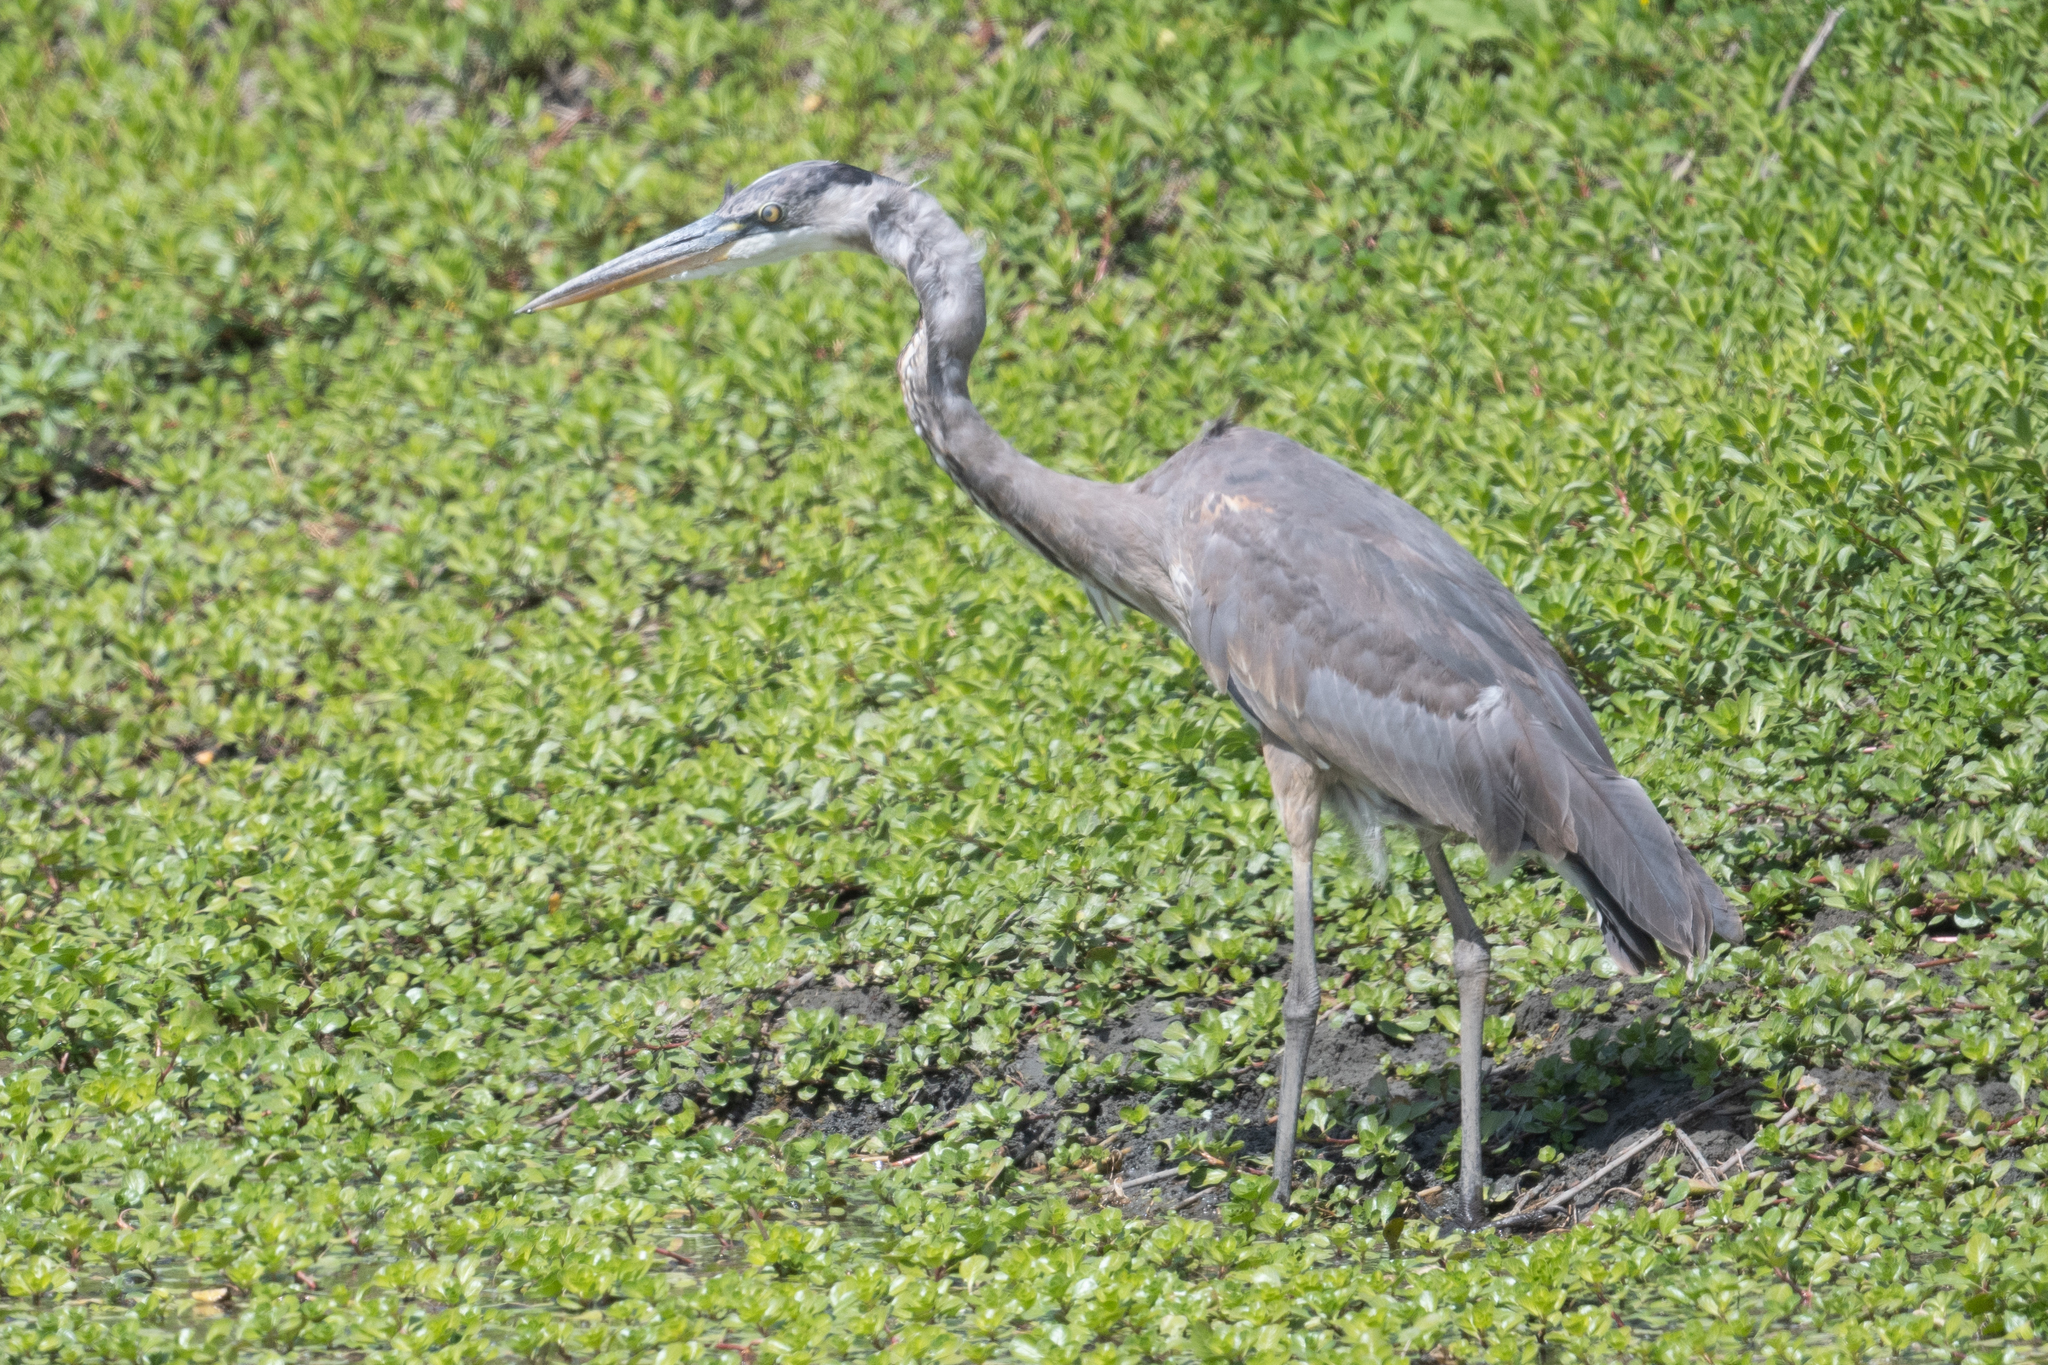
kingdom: Animalia
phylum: Chordata
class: Aves
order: Pelecaniformes
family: Ardeidae
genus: Ardea
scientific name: Ardea herodias
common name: Great blue heron
